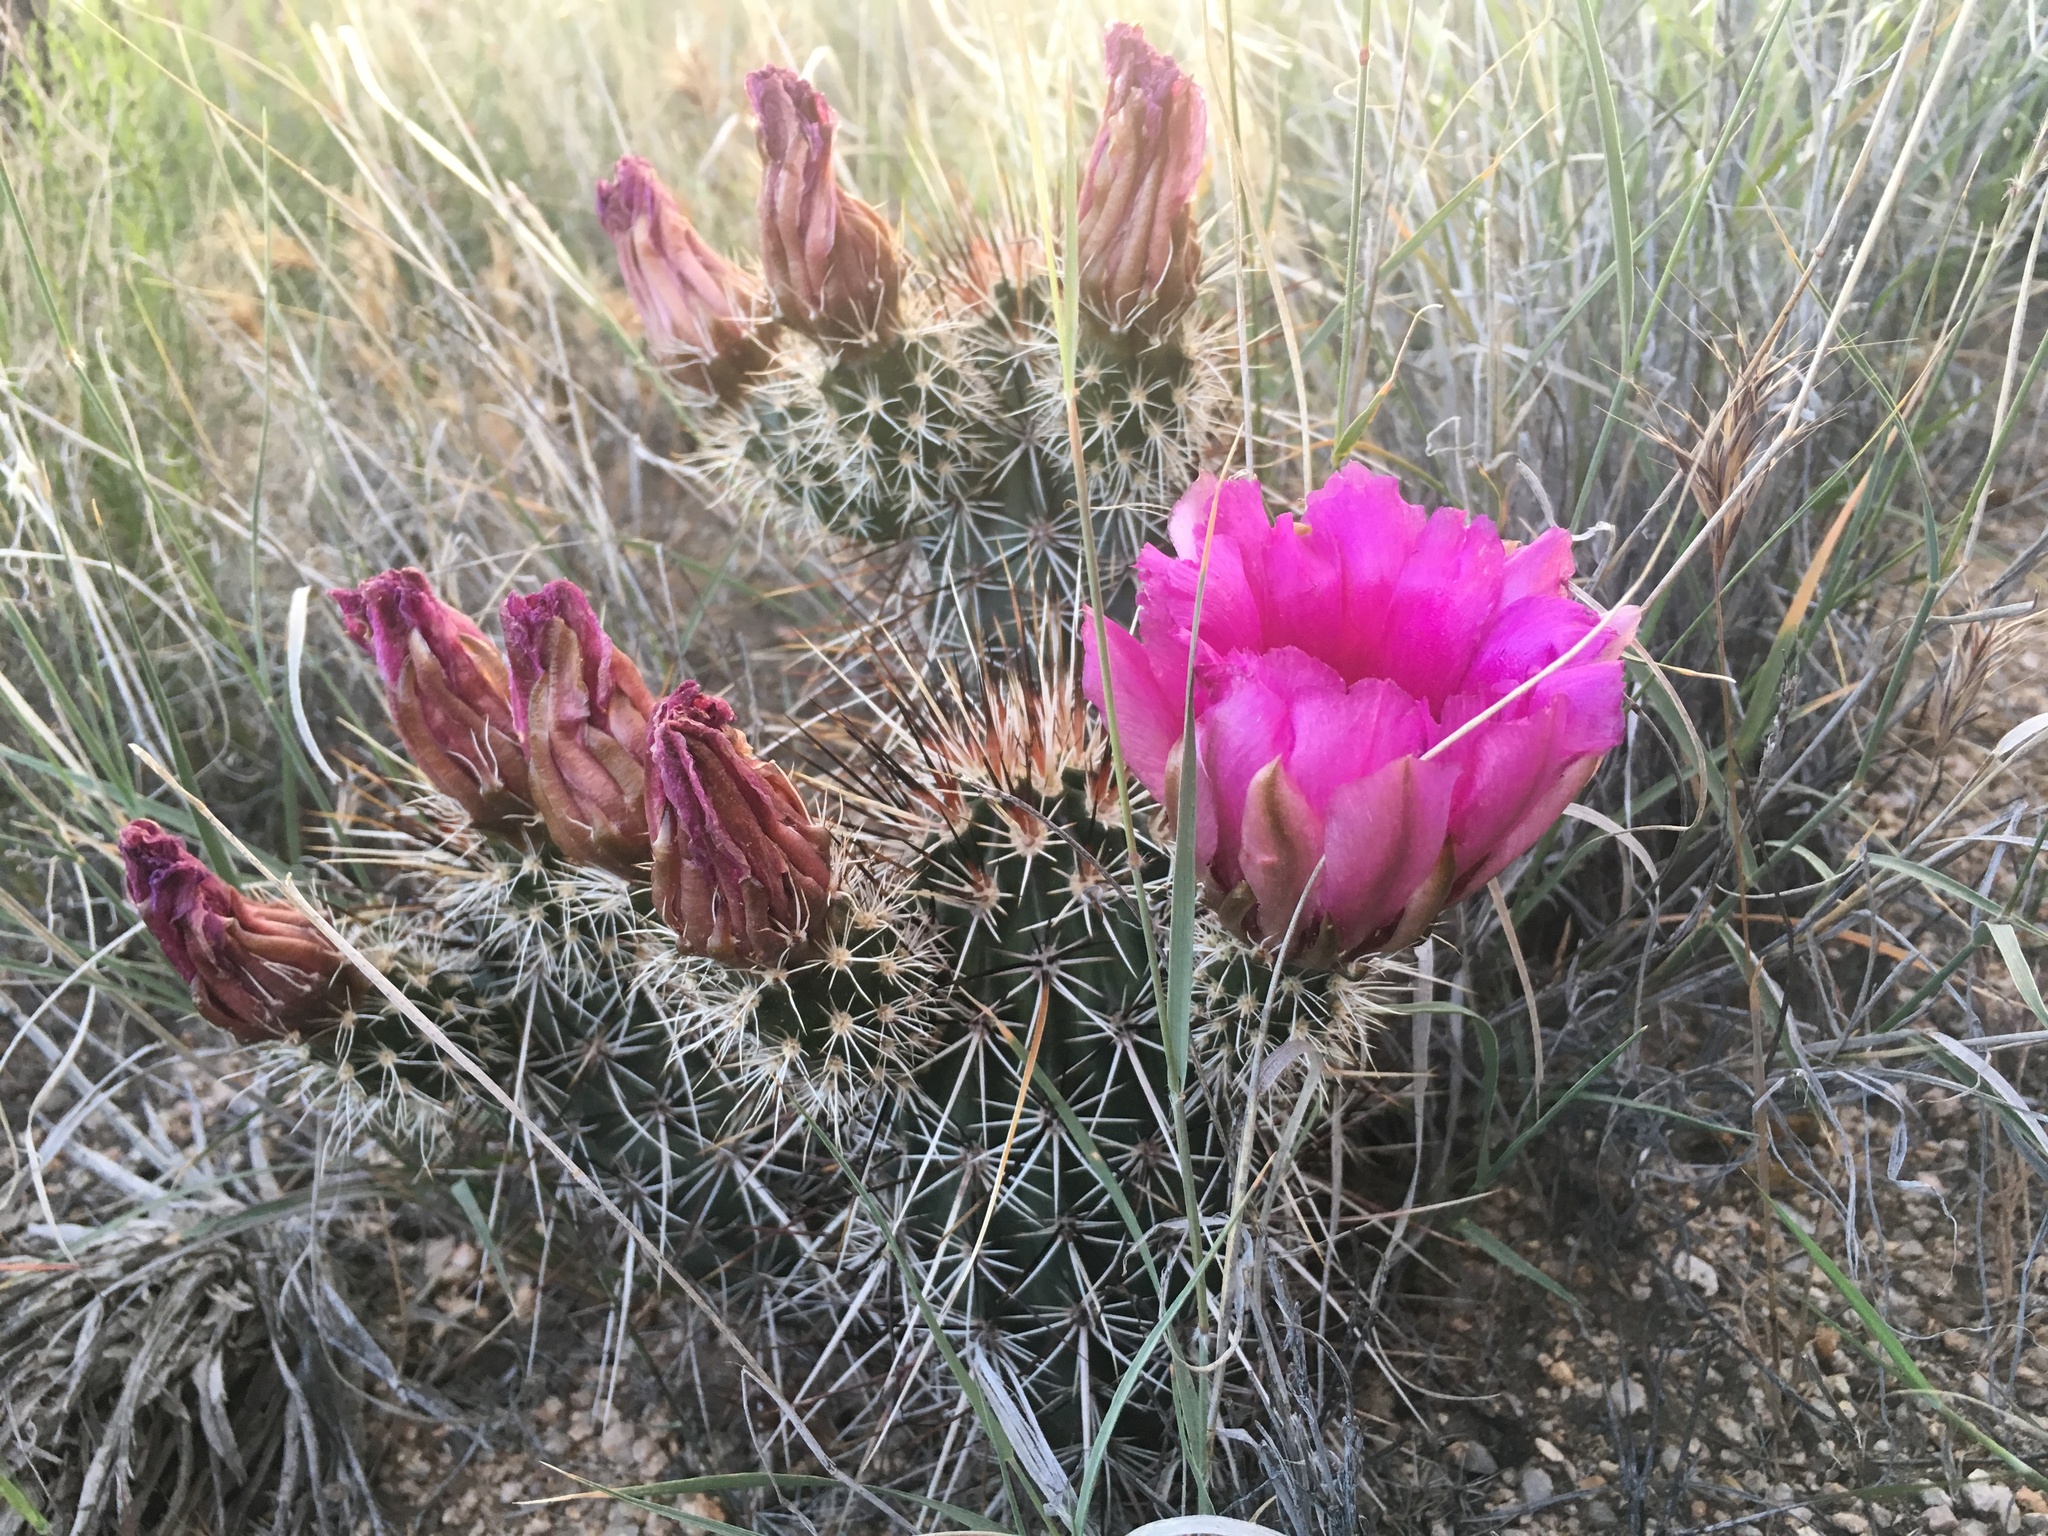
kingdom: Plantae
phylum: Tracheophyta
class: Magnoliopsida
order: Caryophyllales
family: Cactaceae
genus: Echinocereus
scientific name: Echinocereus engelmannii
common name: Engelmann's hedgehog cactus
